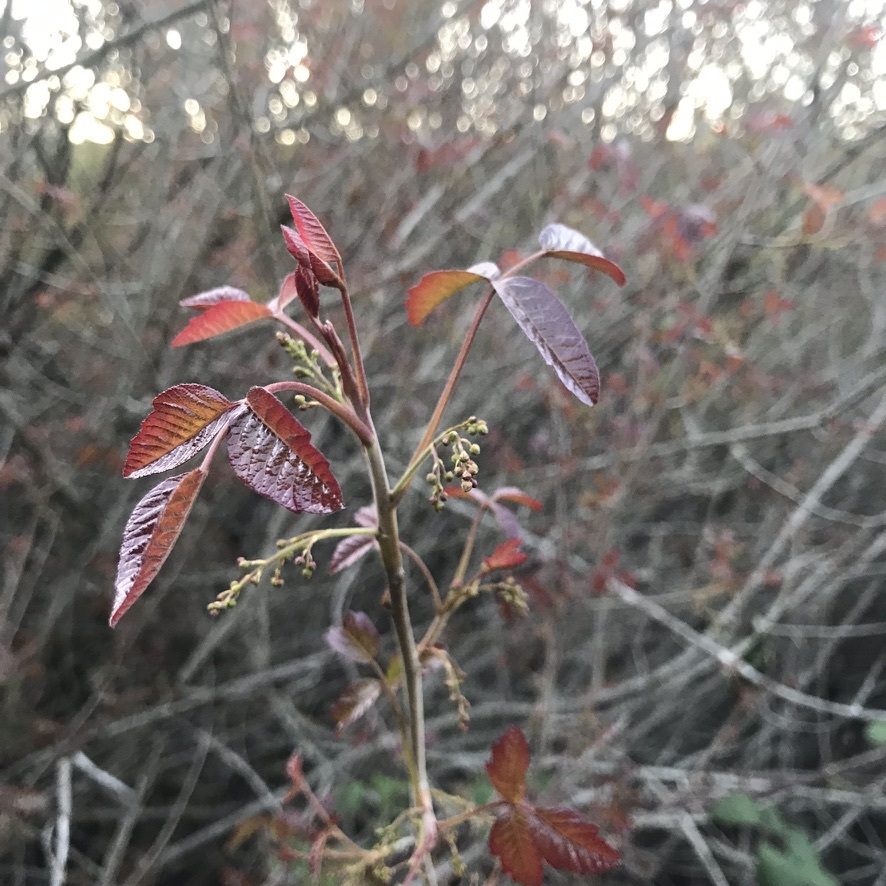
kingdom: Plantae
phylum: Tracheophyta
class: Magnoliopsida
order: Sapindales
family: Anacardiaceae
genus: Toxicodendron
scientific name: Toxicodendron diversilobum
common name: Pacific poison-oak
